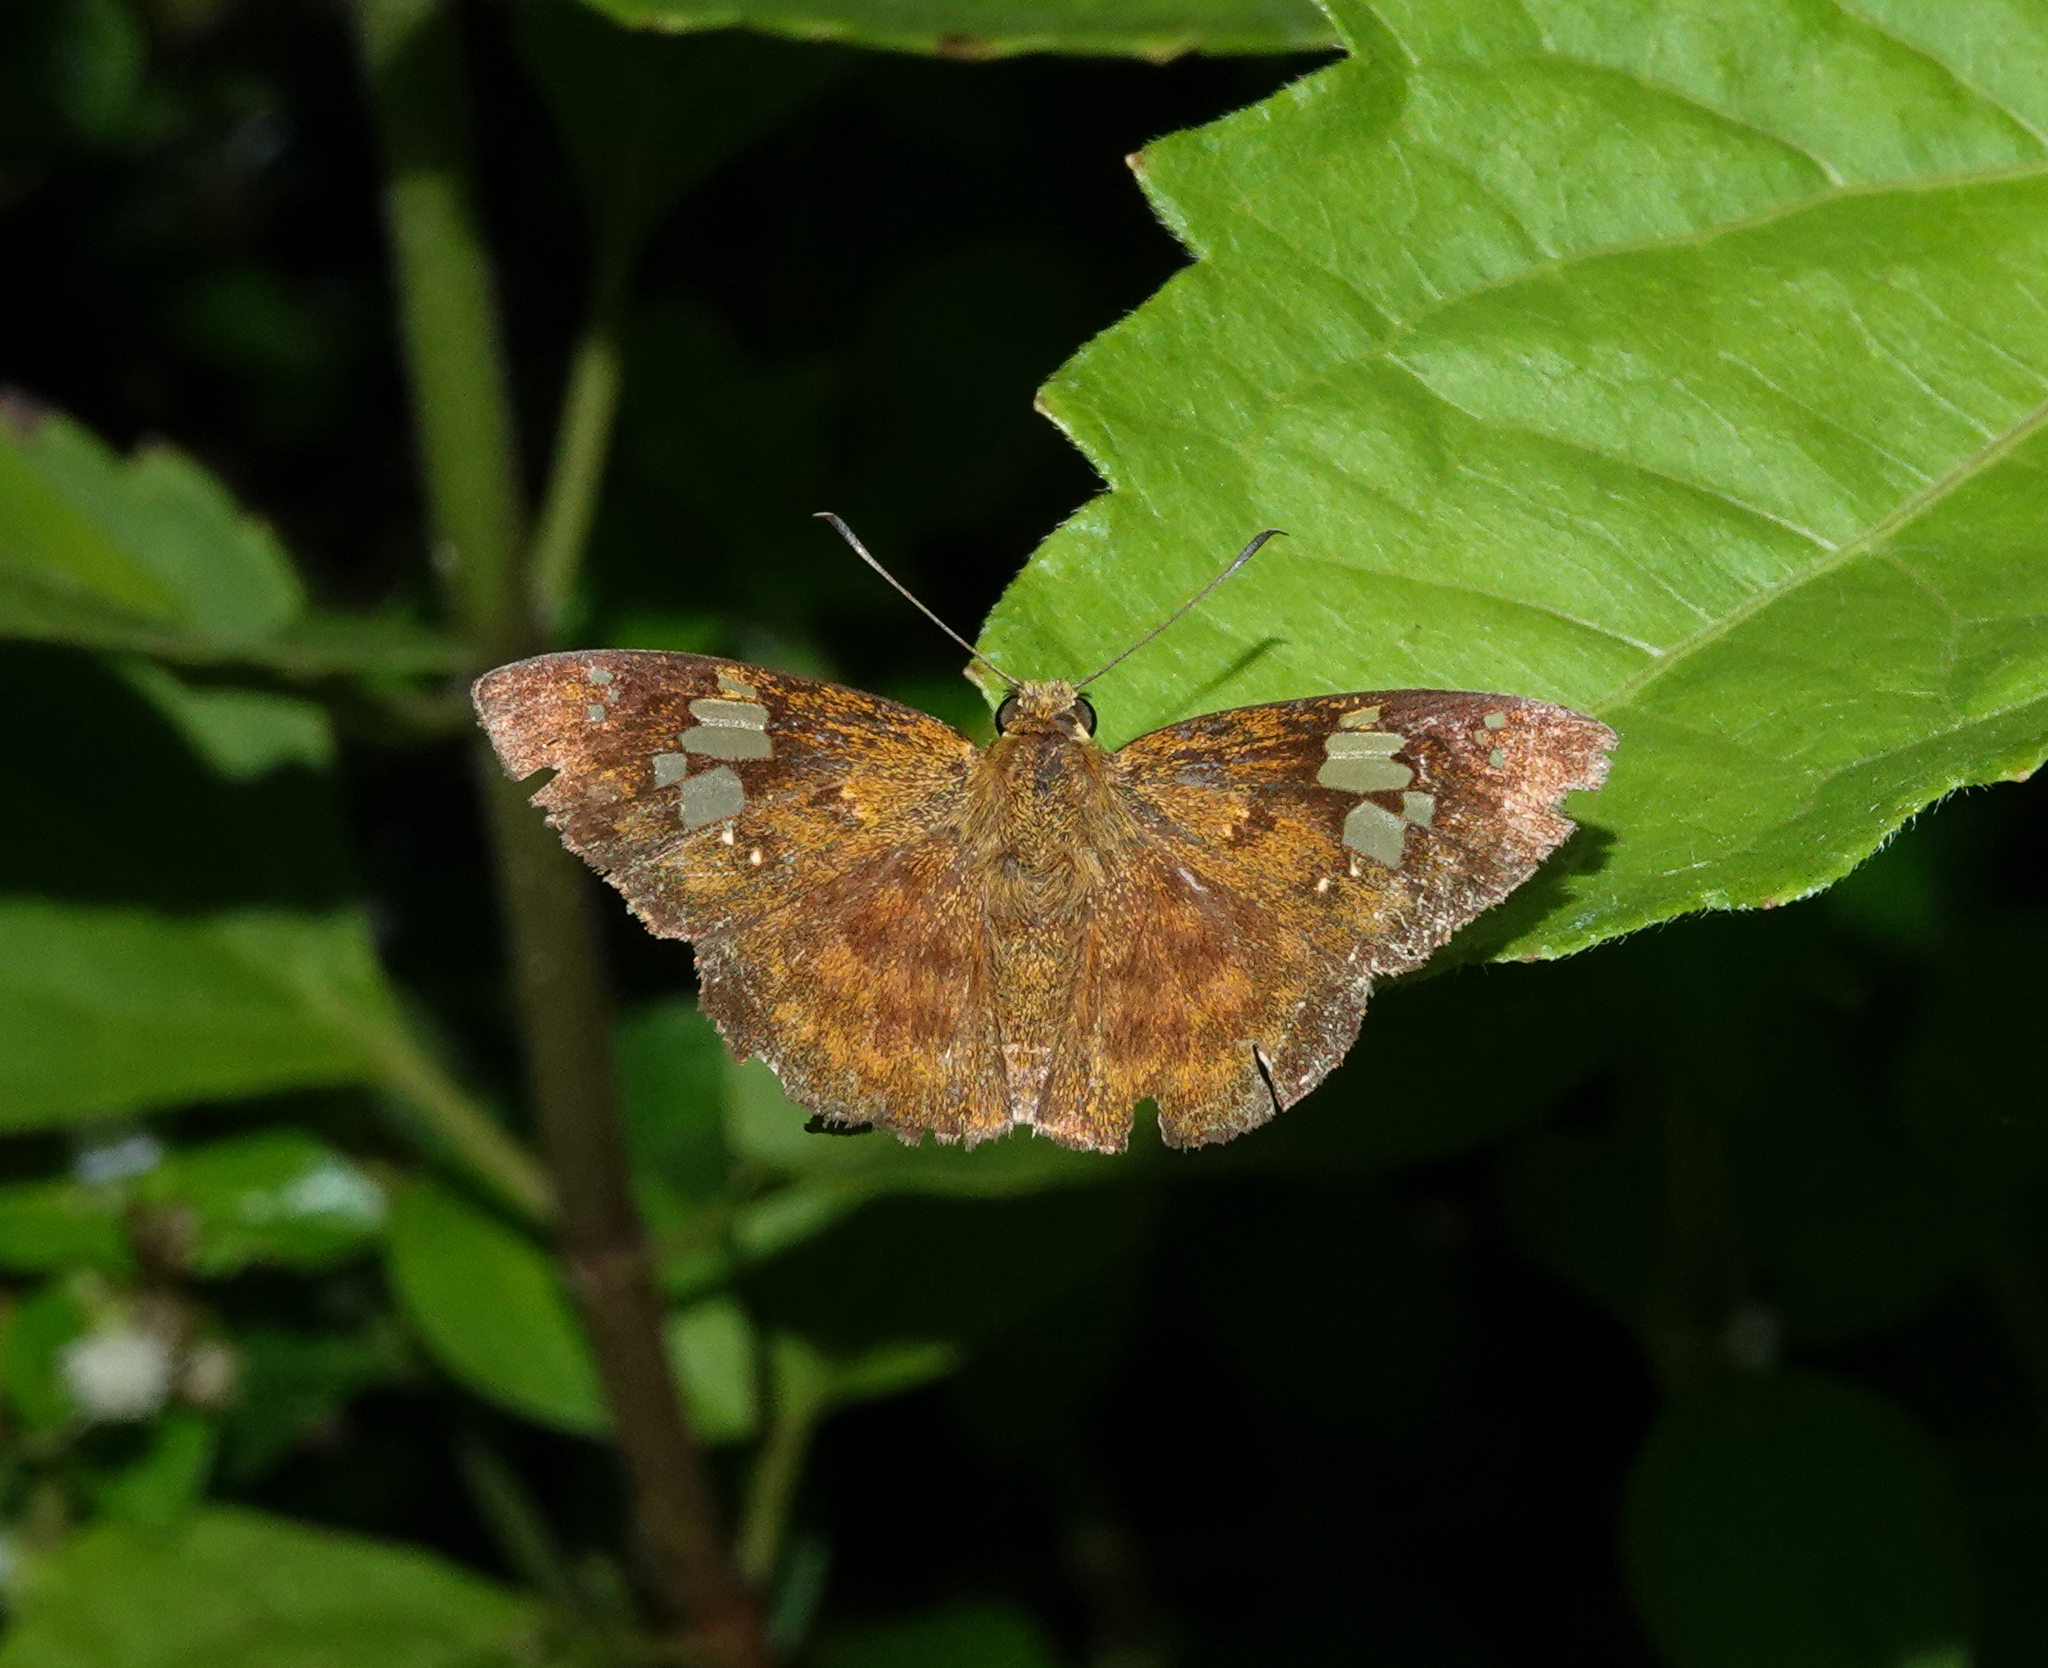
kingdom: Animalia
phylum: Arthropoda
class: Insecta
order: Lepidoptera
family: Hesperiidae
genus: Pseudocoladenia
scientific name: Pseudocoladenia dan
